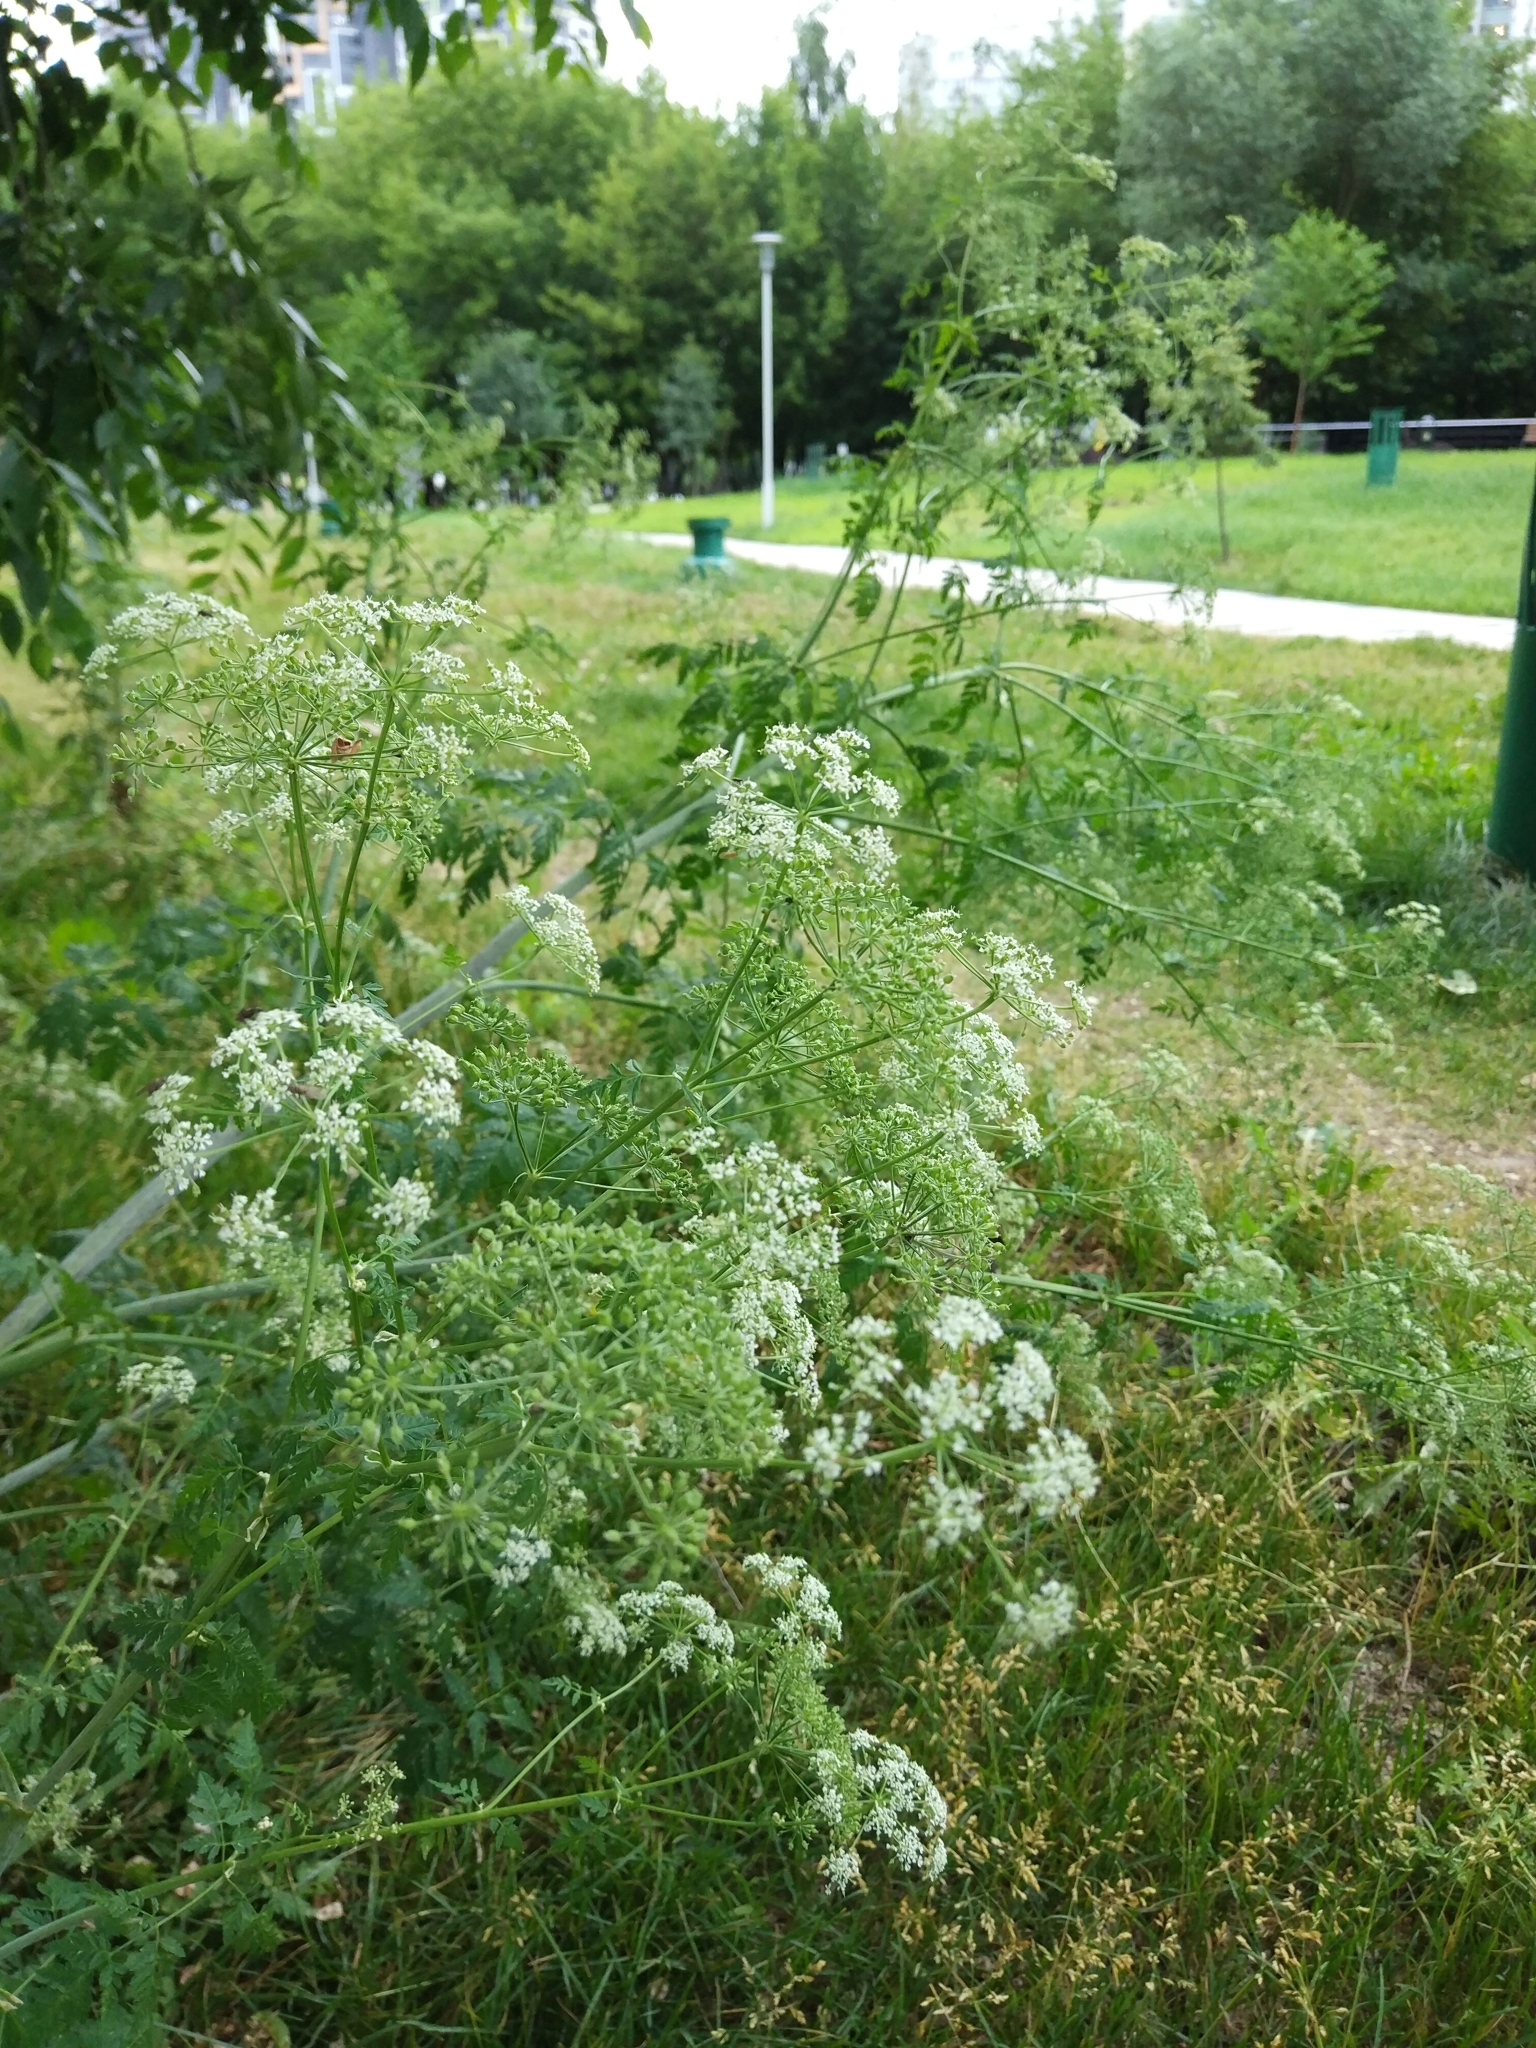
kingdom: Plantae
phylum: Tracheophyta
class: Magnoliopsida
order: Apiales
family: Apiaceae
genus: Conium
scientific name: Conium maculatum
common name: Hemlock
